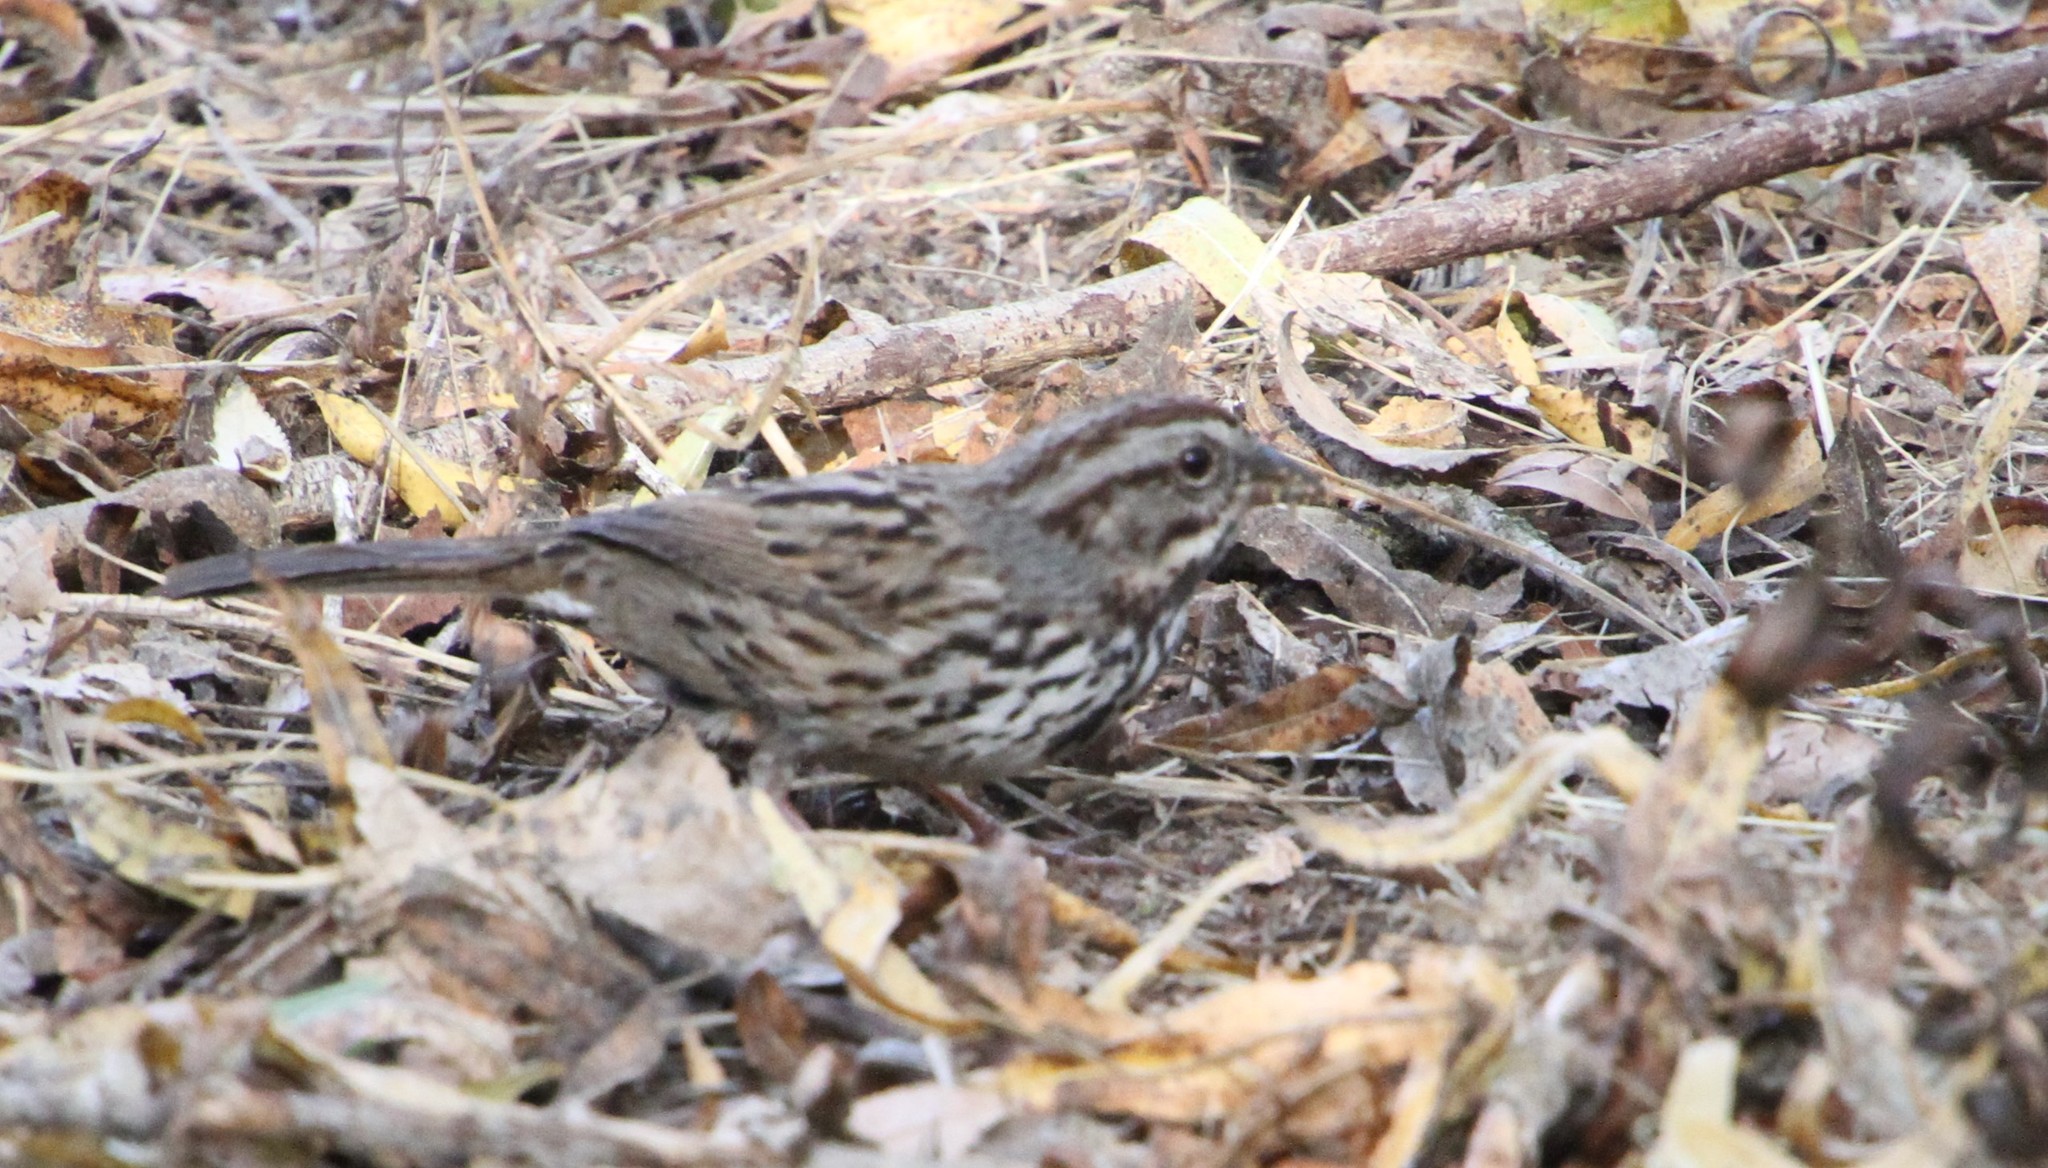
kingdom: Animalia
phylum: Chordata
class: Aves
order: Passeriformes
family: Passerellidae
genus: Melospiza
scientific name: Melospiza melodia
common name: Song sparrow
